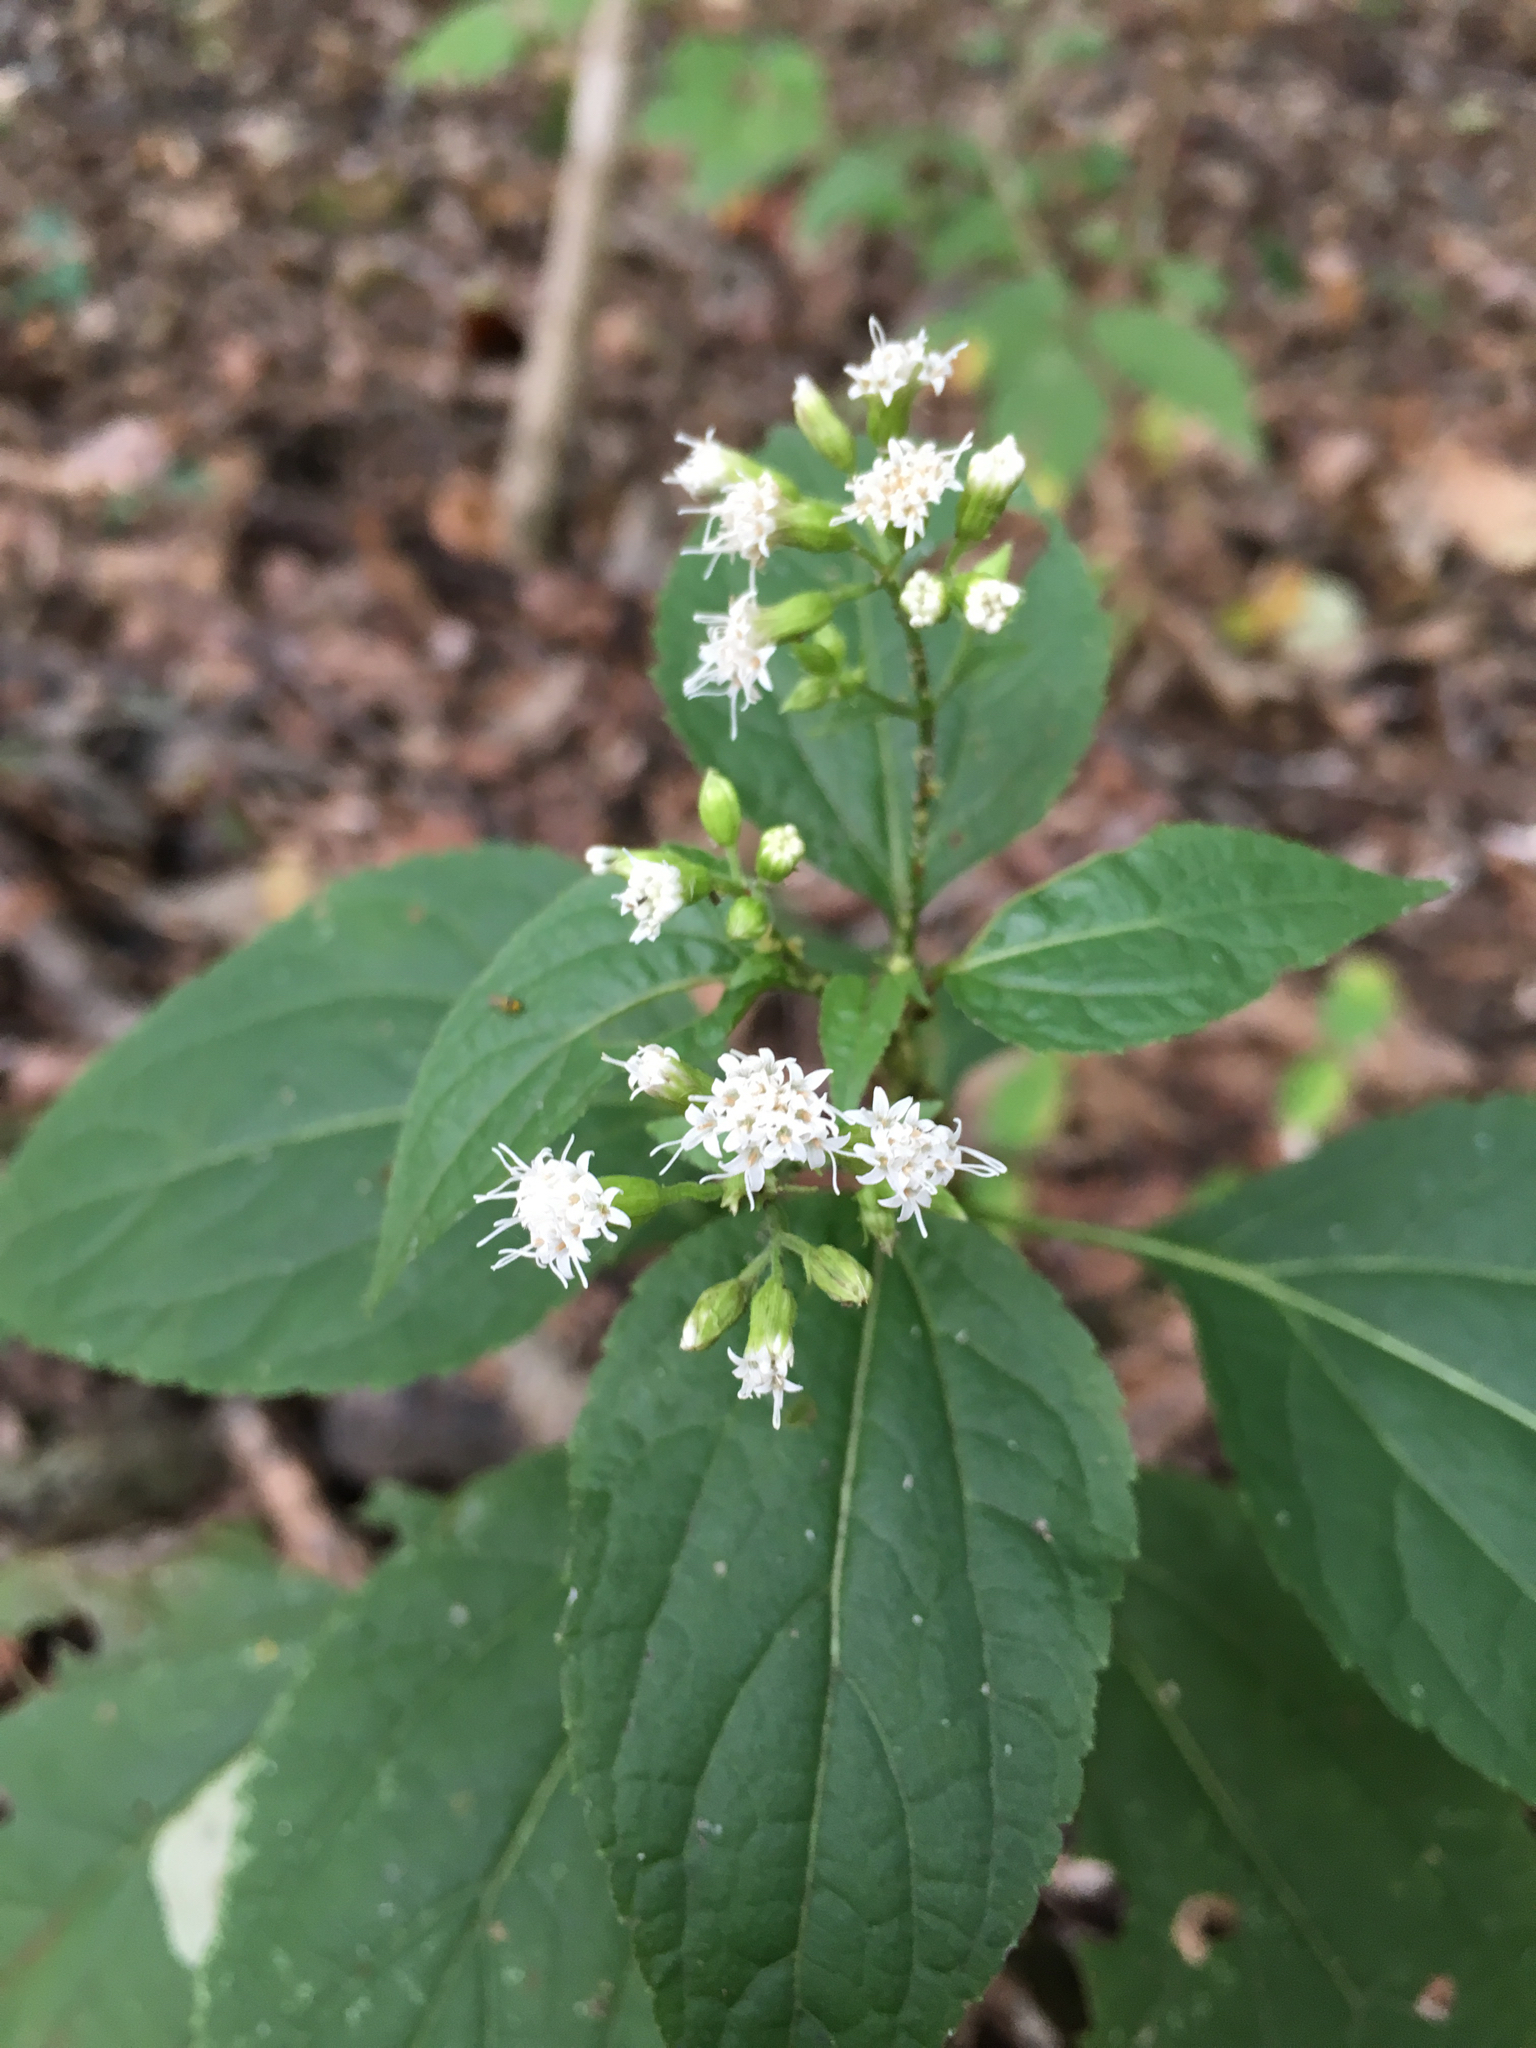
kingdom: Plantae
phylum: Tracheophyta
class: Magnoliopsida
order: Asterales
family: Asteraceae
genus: Ageratina
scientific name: Ageratina altissima
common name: White snakeroot
